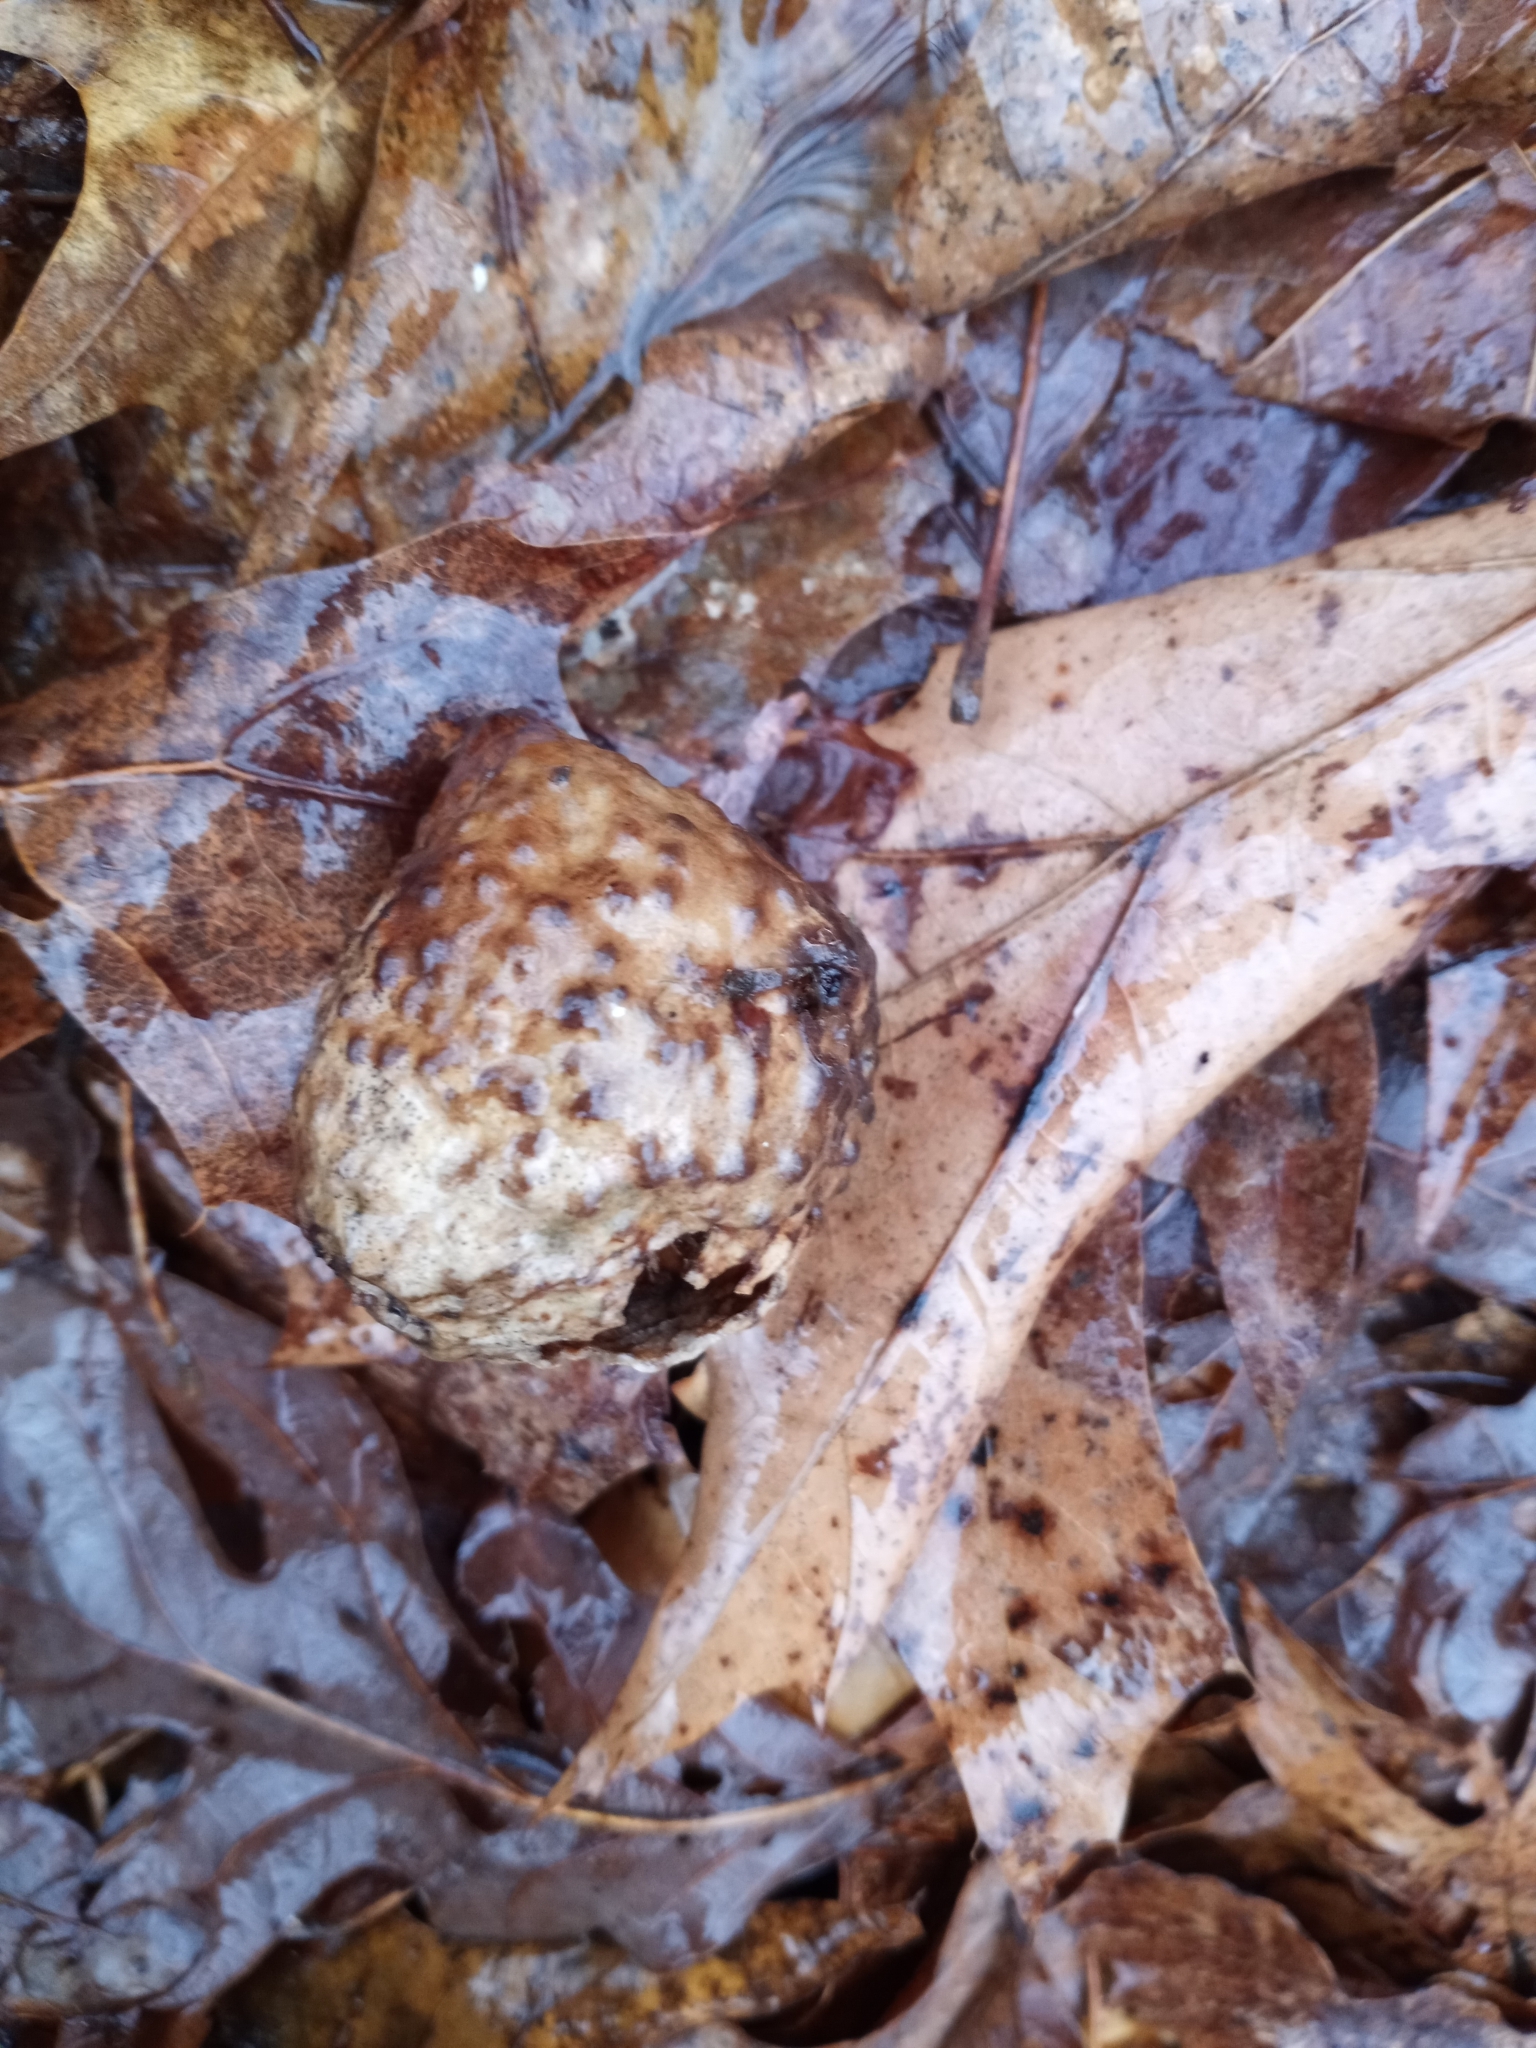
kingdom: Animalia
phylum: Arthropoda
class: Insecta
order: Hymenoptera
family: Cynipidae
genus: Amphibolips
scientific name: Amphibolips
